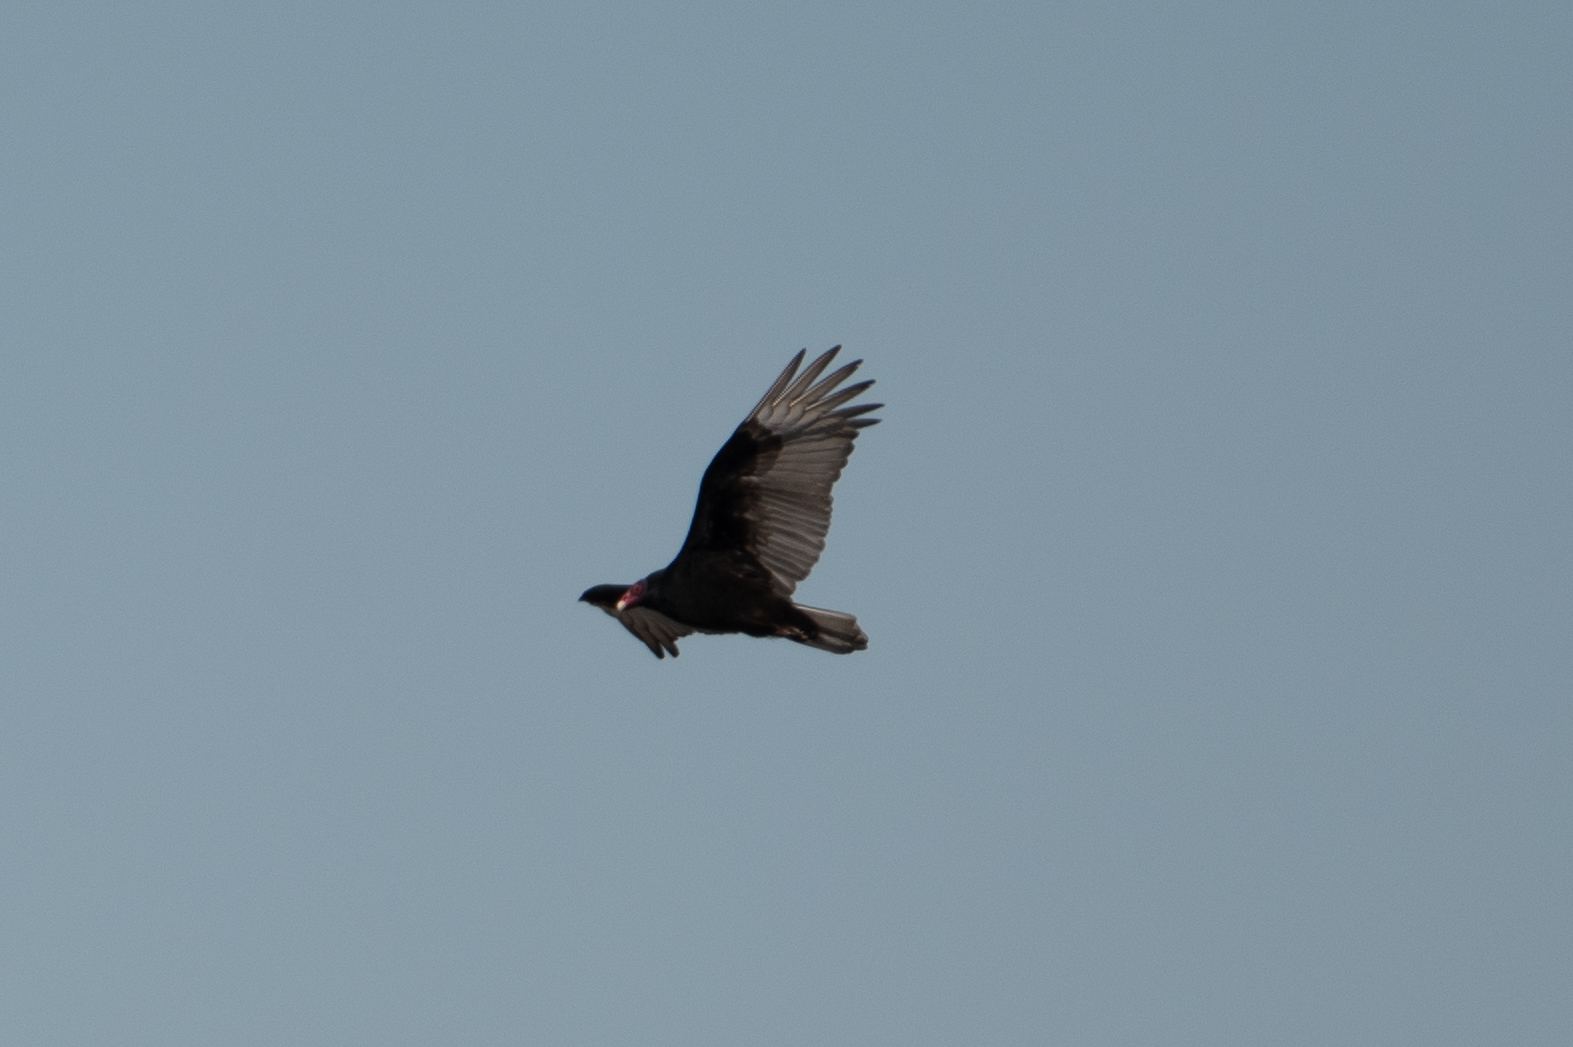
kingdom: Animalia
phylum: Chordata
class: Aves
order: Accipitriformes
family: Cathartidae
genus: Cathartes
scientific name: Cathartes aura
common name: Turkey vulture
